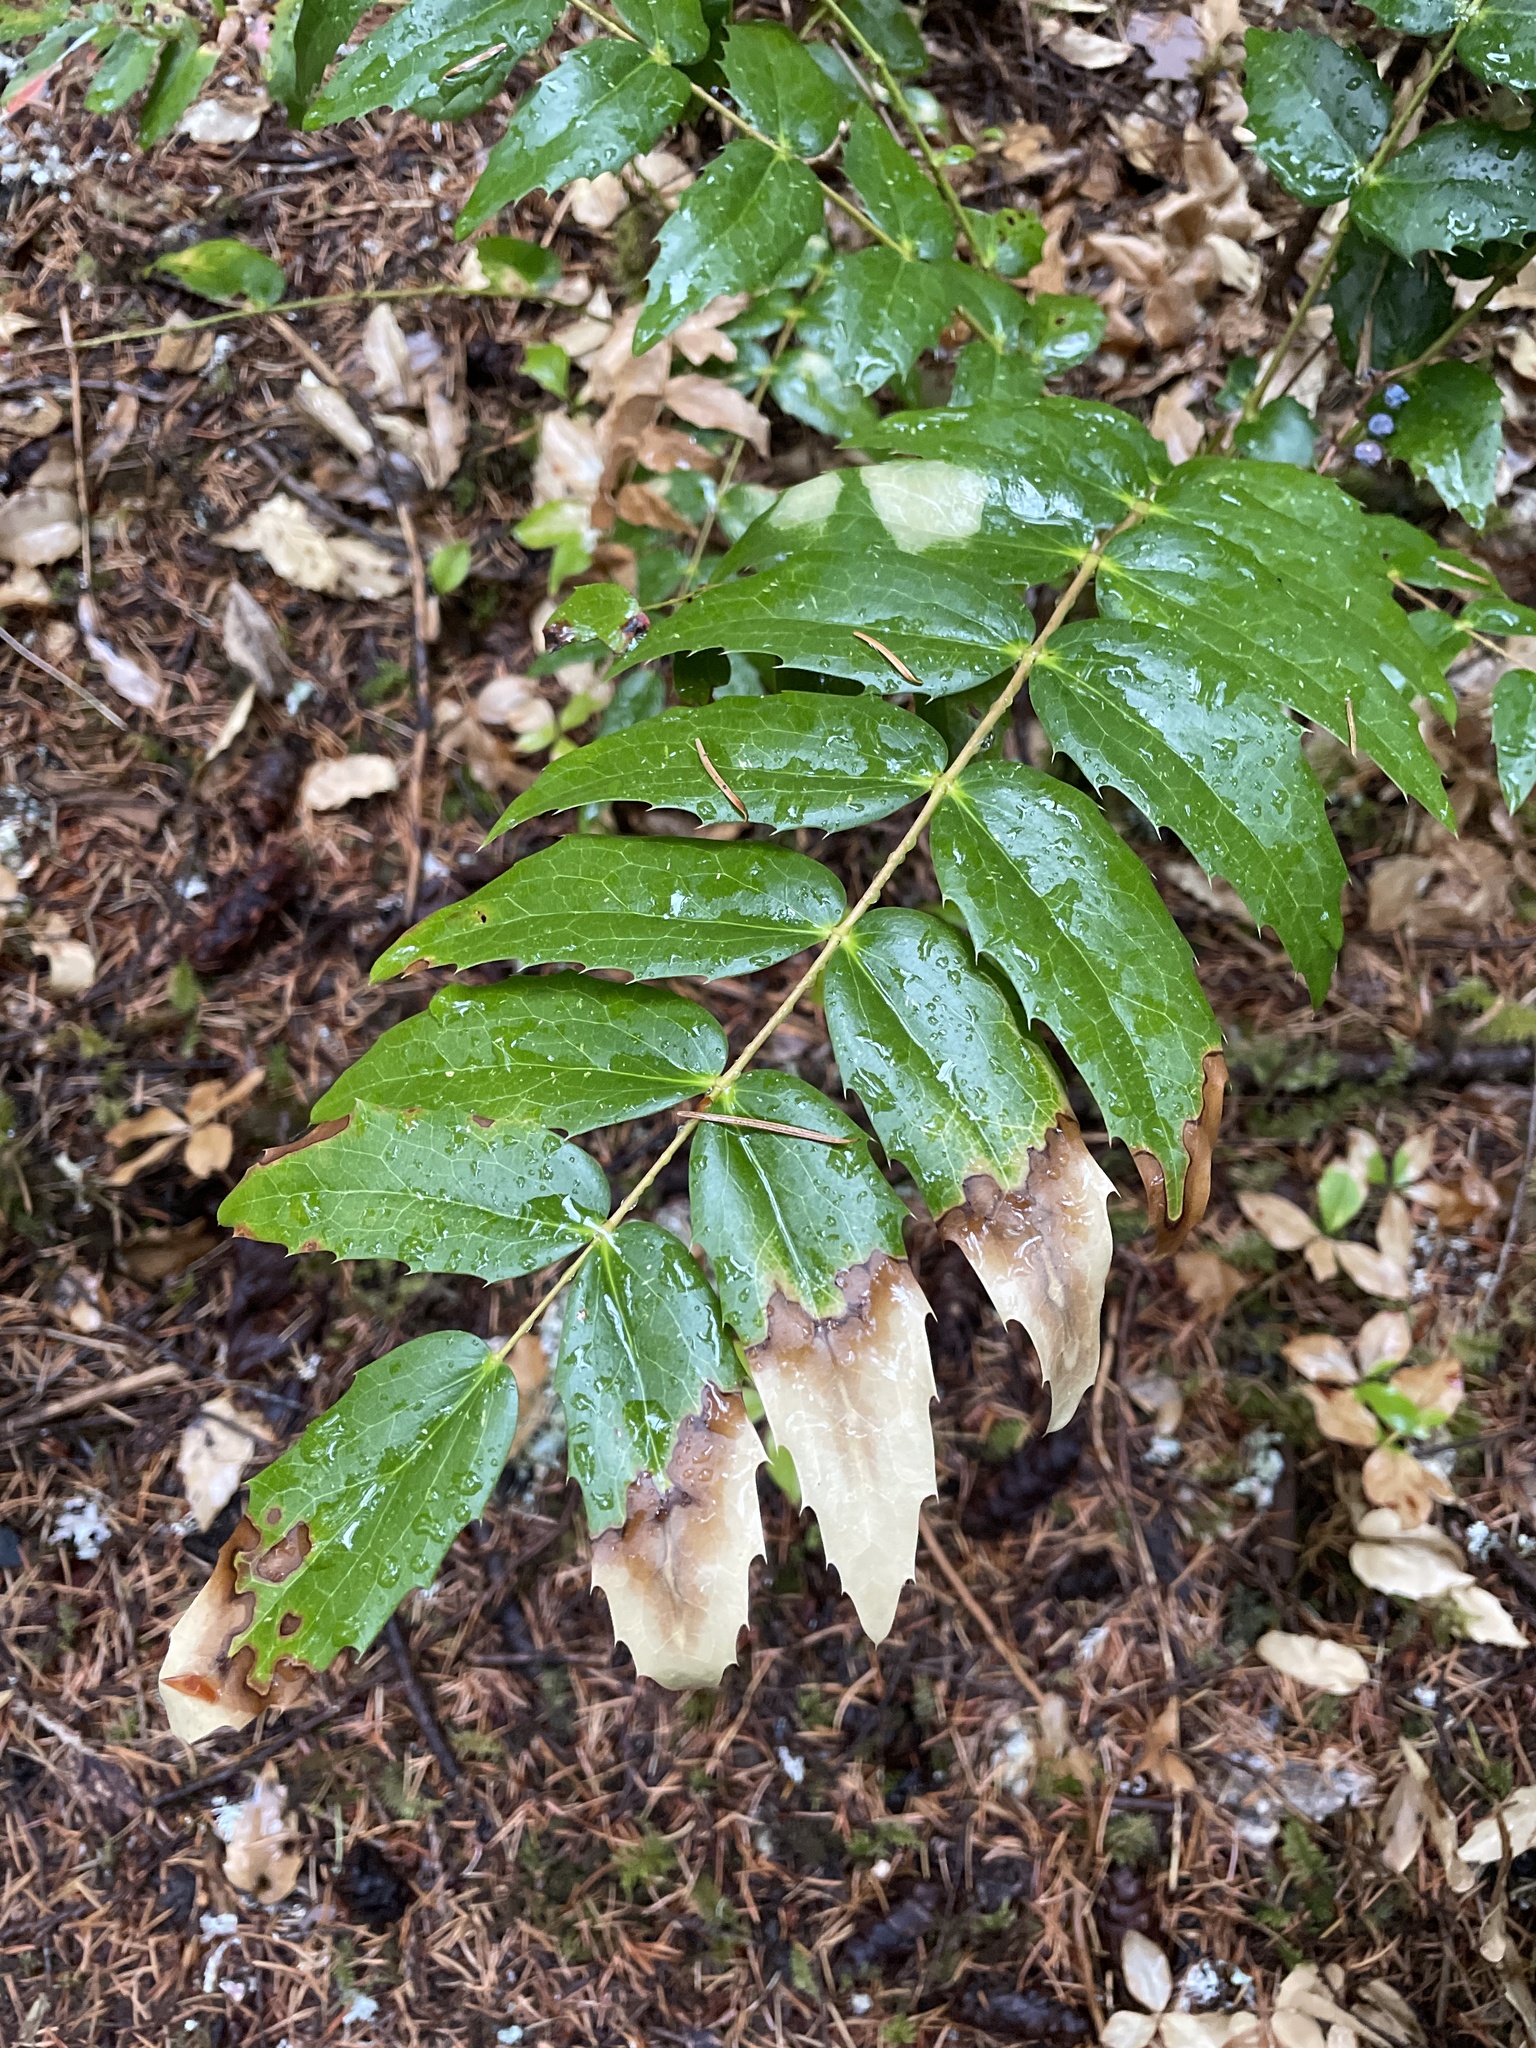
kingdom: Plantae
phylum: Tracheophyta
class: Magnoliopsida
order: Ranunculales
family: Berberidaceae
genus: Mahonia
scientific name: Mahonia nervosa
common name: Cascade oregon-grape
